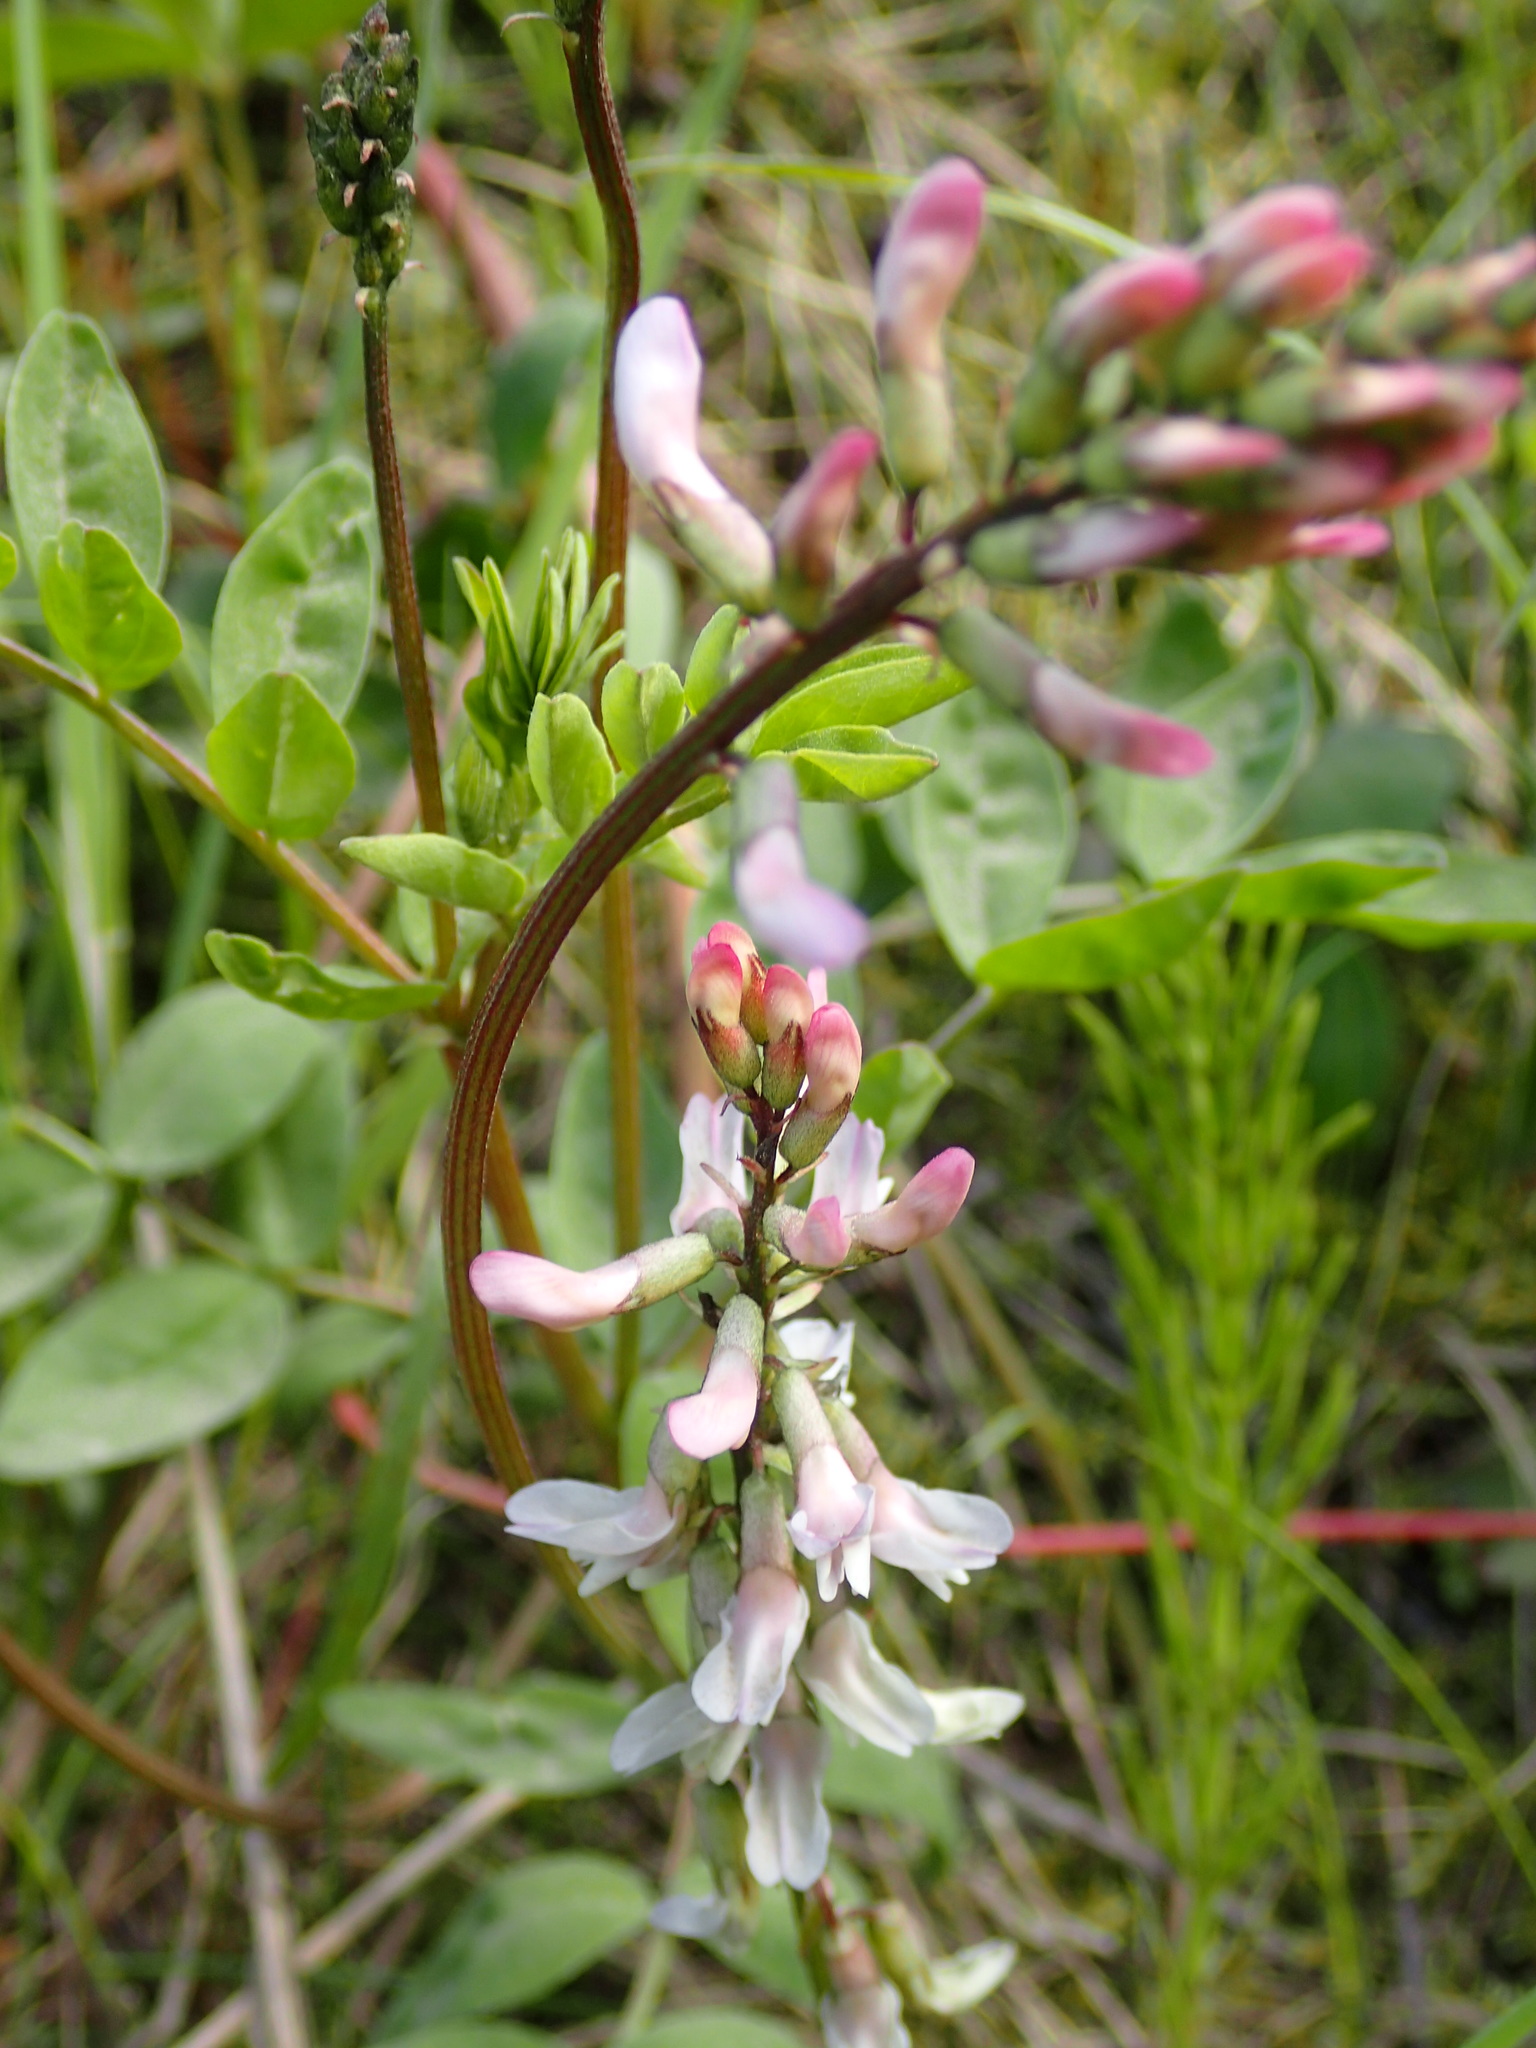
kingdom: Plantae
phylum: Tracheophyta
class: Magnoliopsida
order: Fabales
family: Fabaceae
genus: Astragalus
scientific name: Astragalus robbinsii
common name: Robbins' milk-vetch
